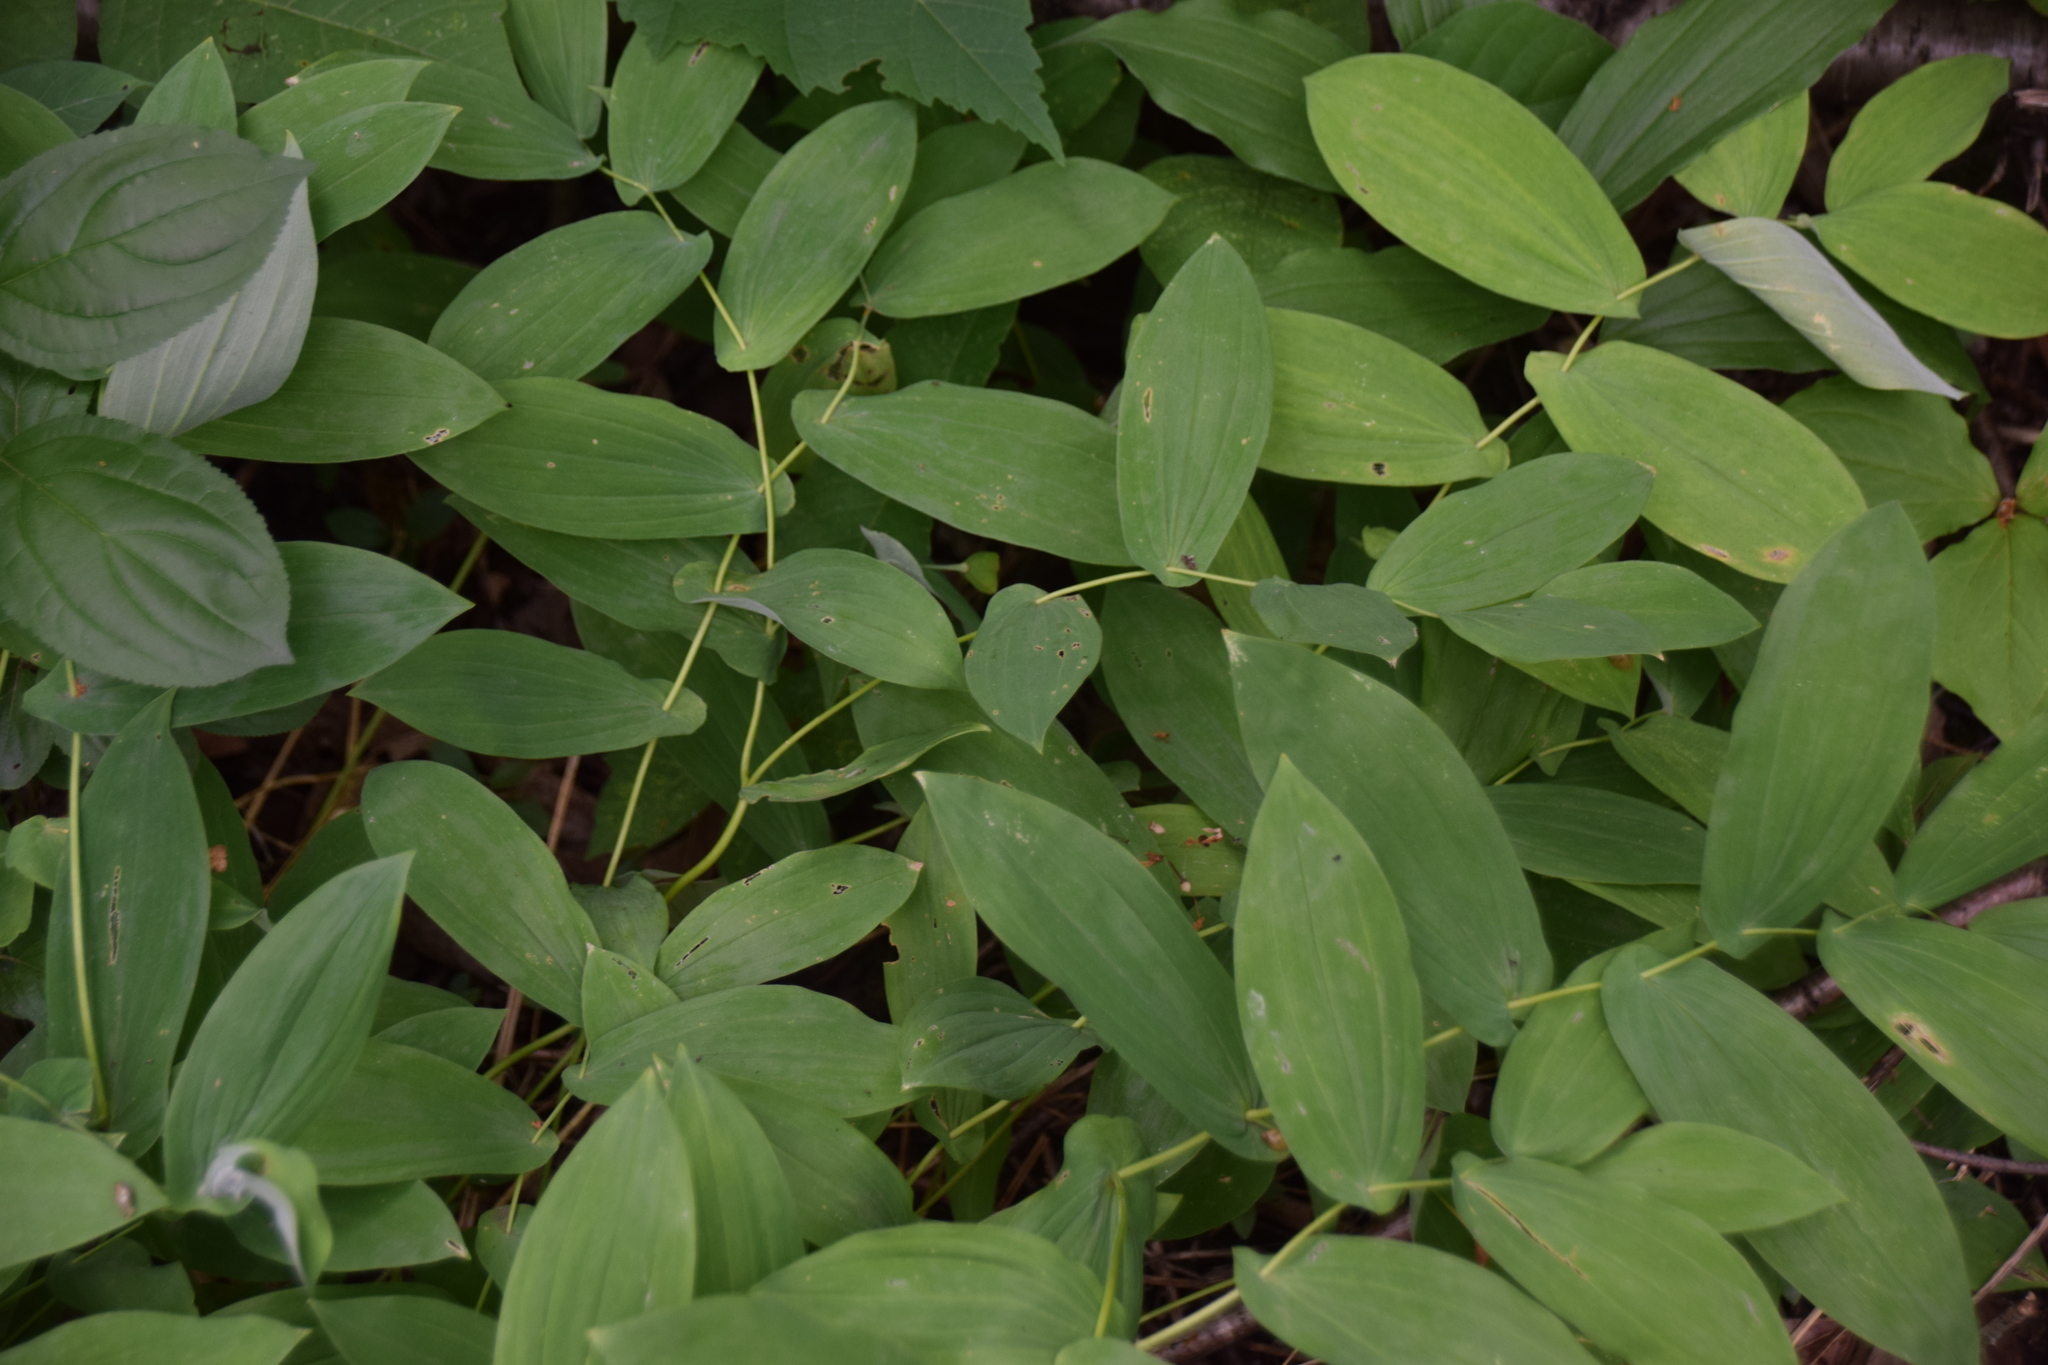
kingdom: Plantae
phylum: Tracheophyta
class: Liliopsida
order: Liliales
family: Colchicaceae
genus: Uvularia
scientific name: Uvularia grandiflora
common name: Bellwort
